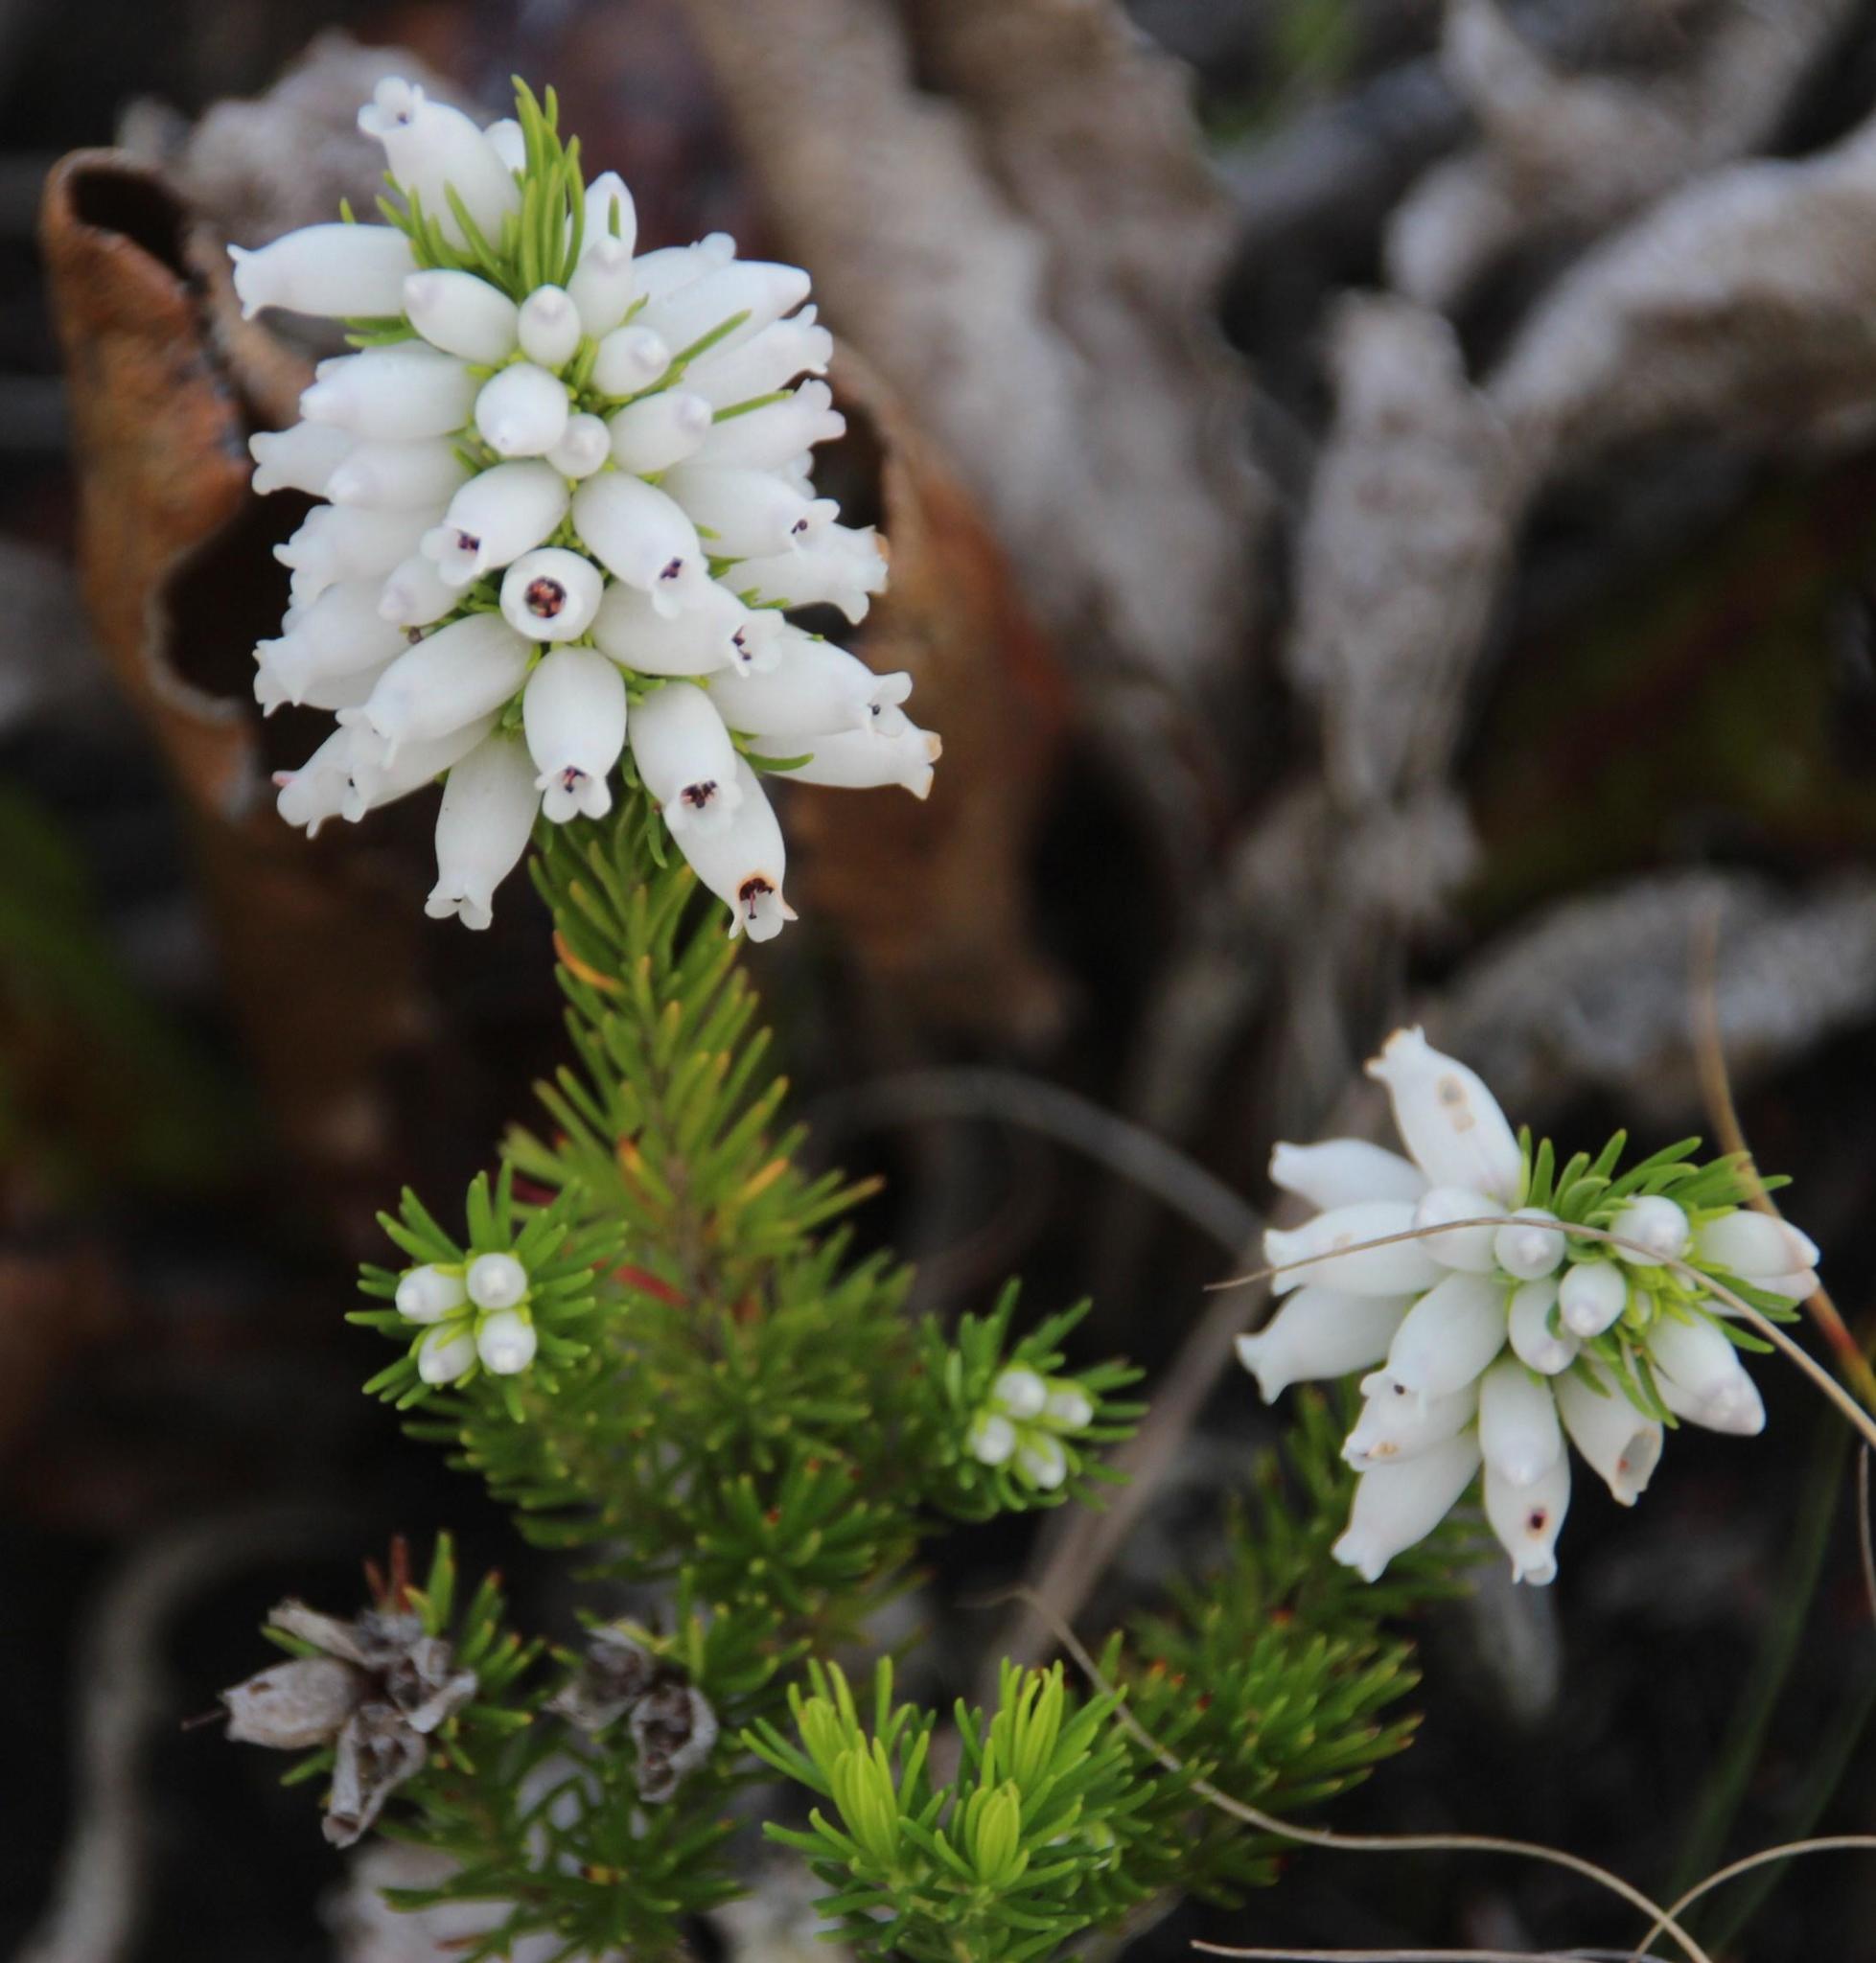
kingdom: Plantae
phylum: Tracheophyta
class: Magnoliopsida
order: Ericales
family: Ericaceae
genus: Erica
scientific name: Erica sitiens
